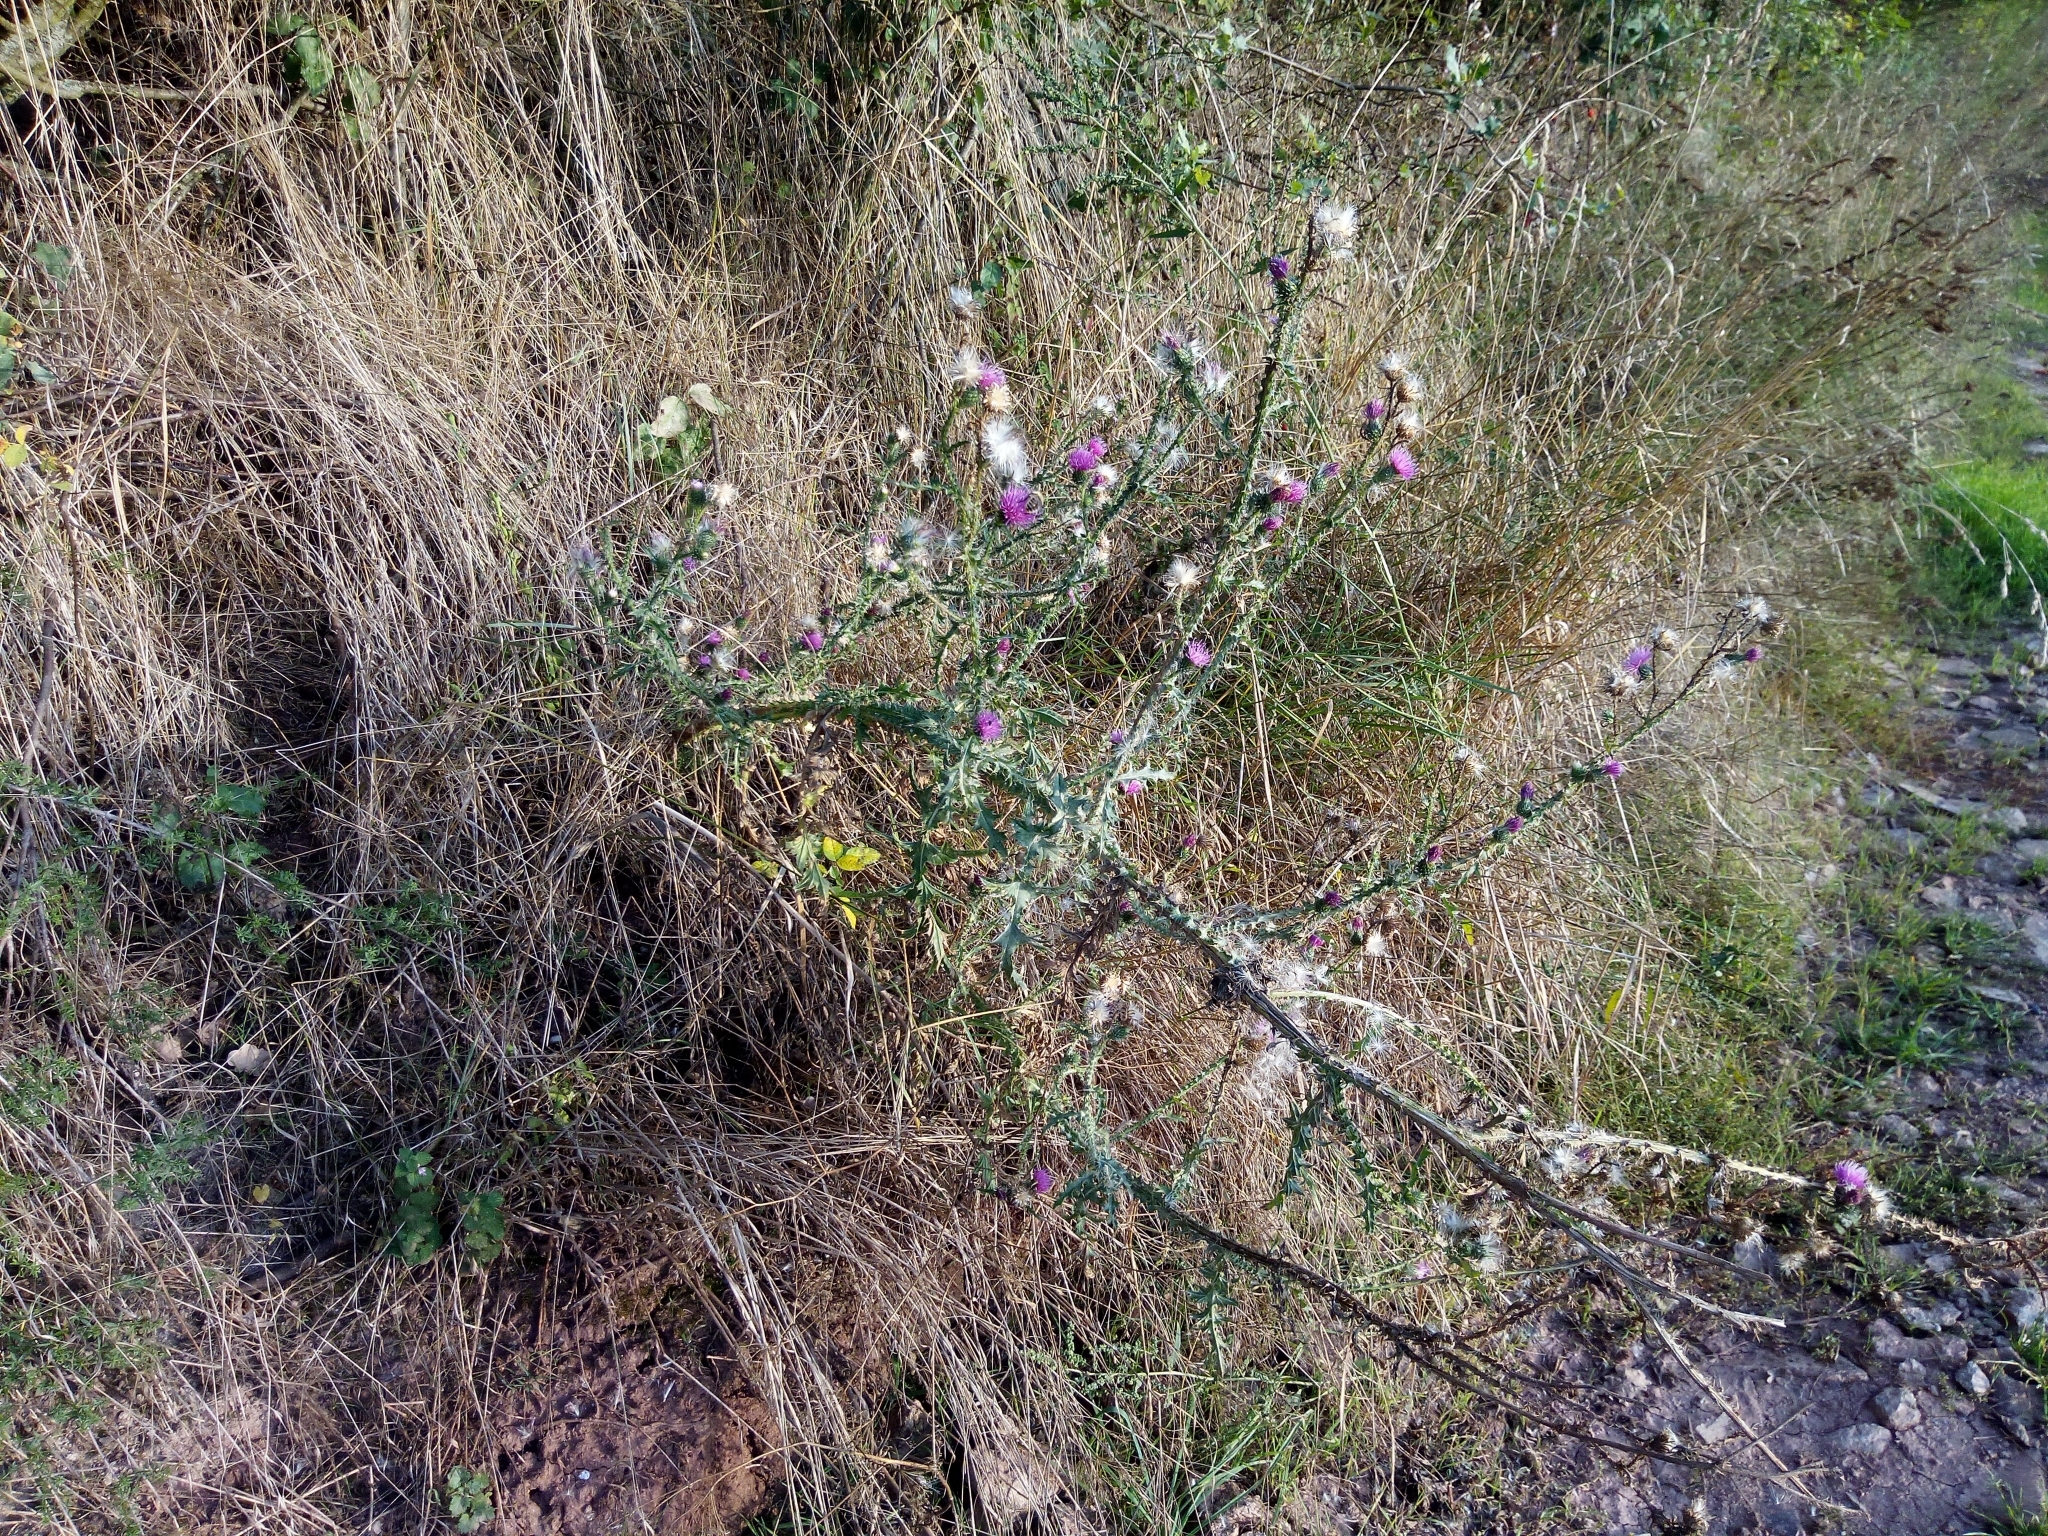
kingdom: Plantae
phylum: Tracheophyta
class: Magnoliopsida
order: Asterales
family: Asteraceae
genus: Carduus
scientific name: Carduus acanthoides
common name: Plumeless thistle
